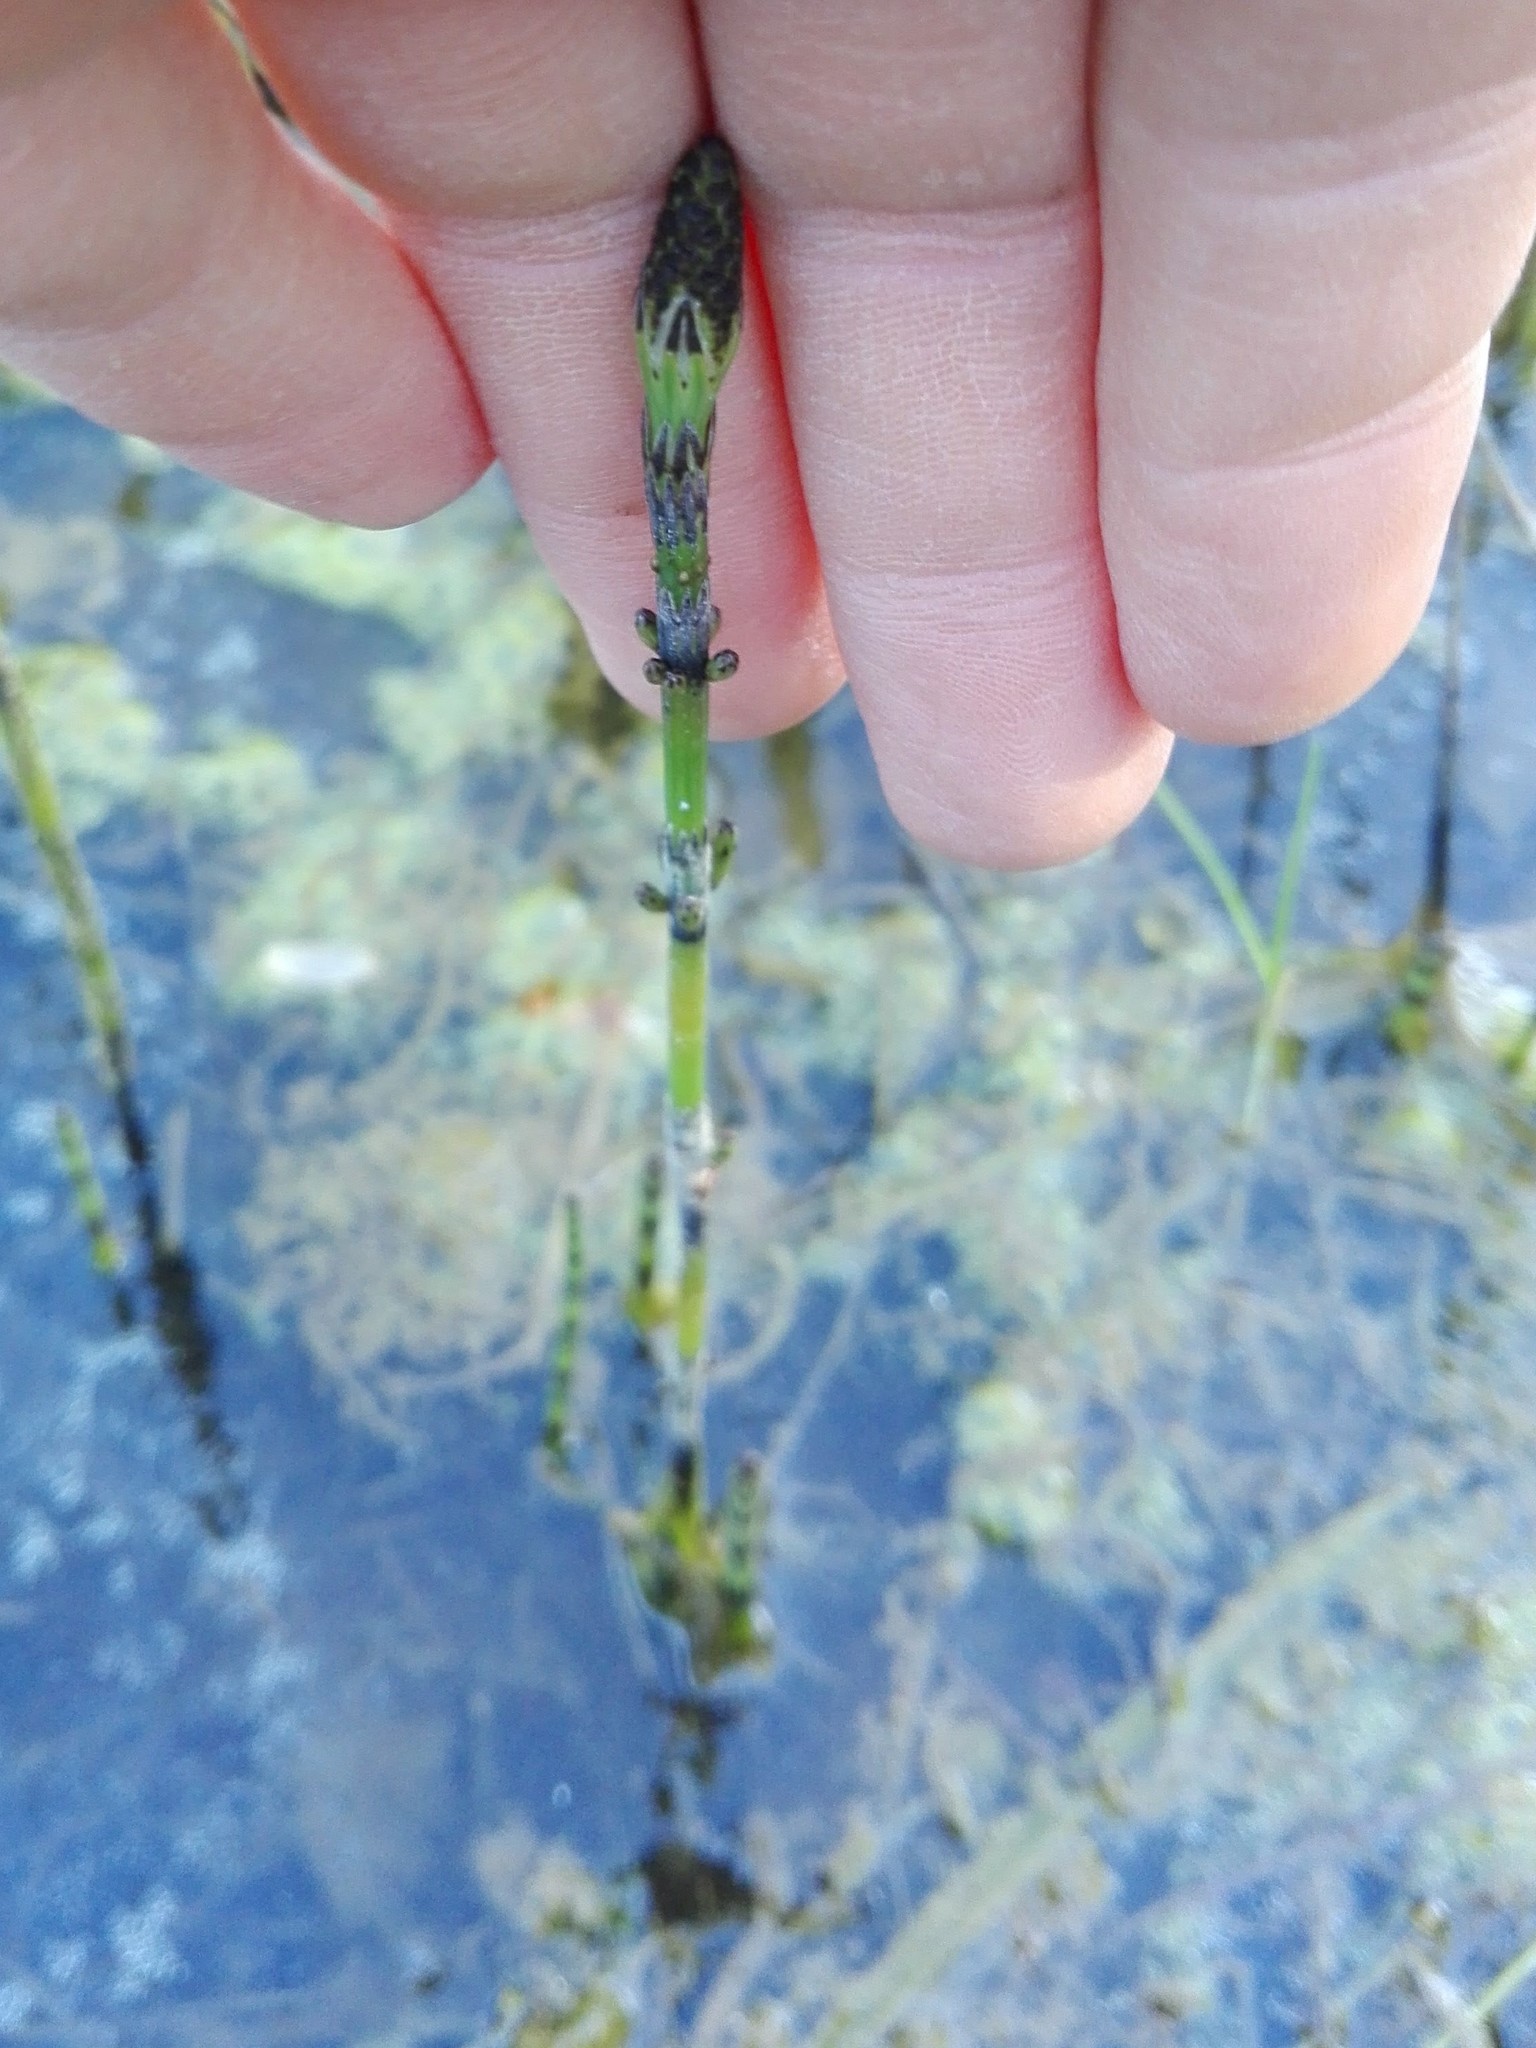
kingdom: Plantae
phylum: Tracheophyta
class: Polypodiopsida
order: Equisetales
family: Equisetaceae
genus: Equisetum
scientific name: Equisetum palustre
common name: Marsh horsetail
